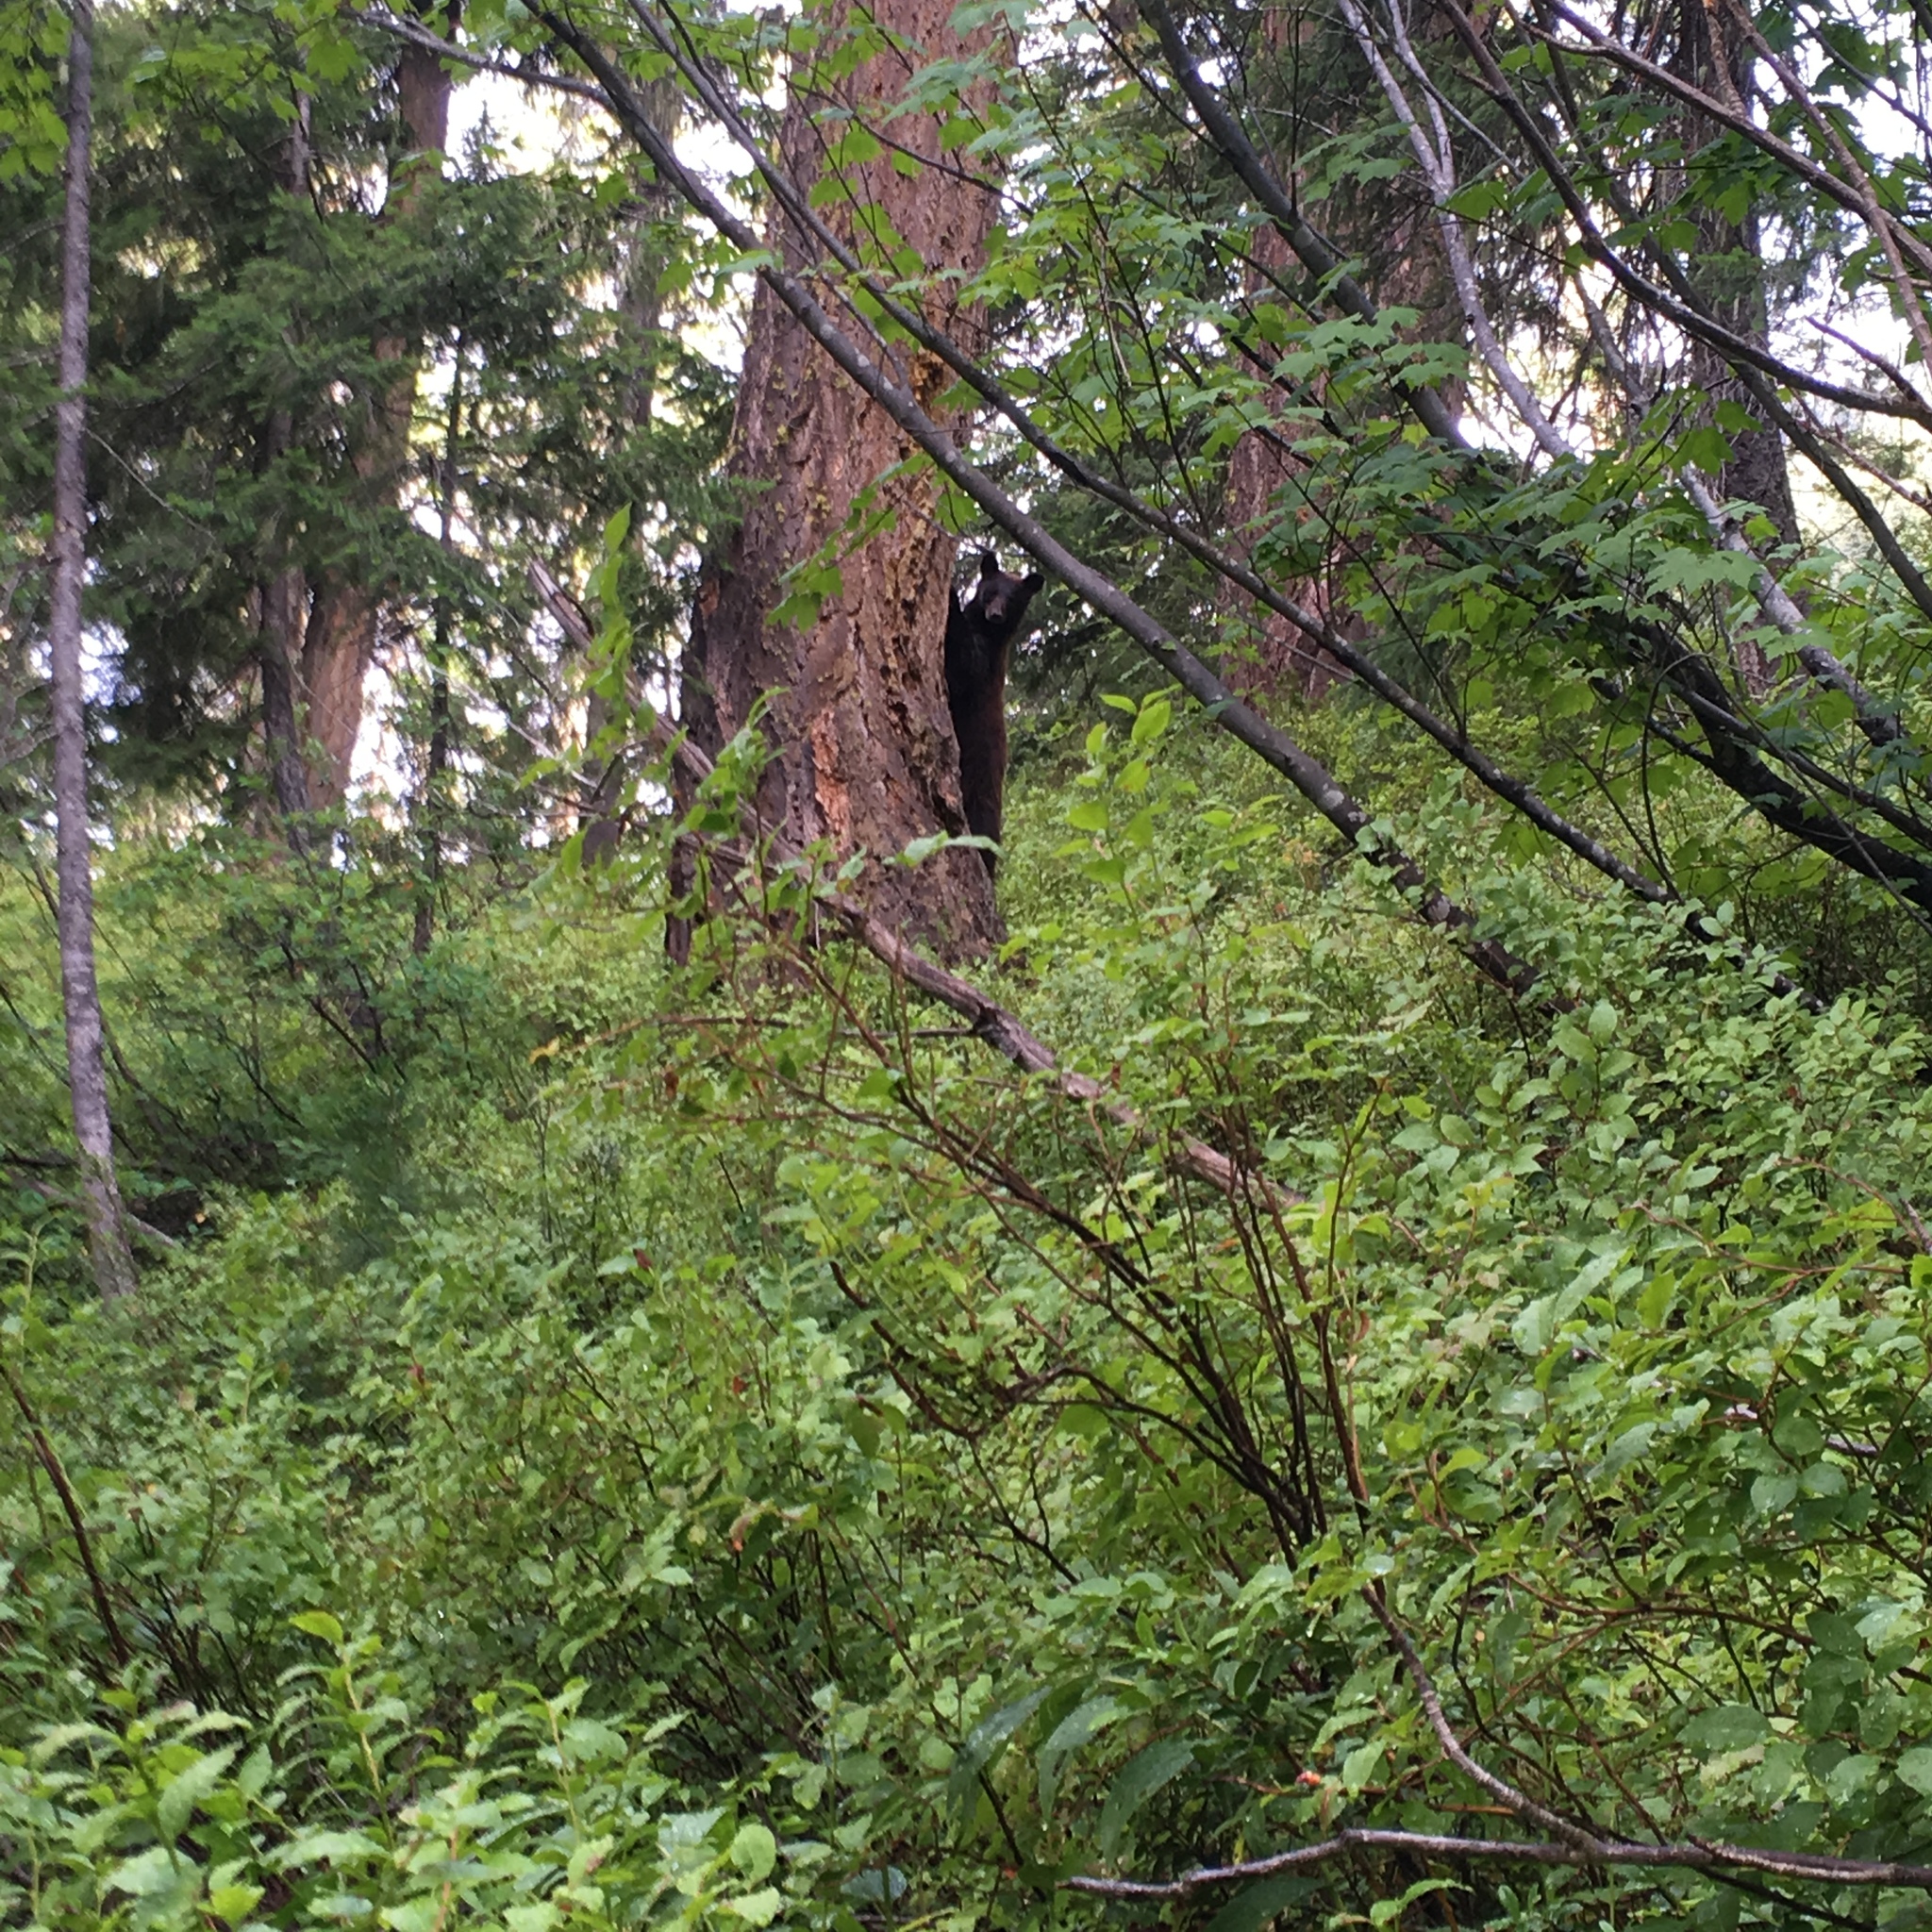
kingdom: Animalia
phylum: Chordata
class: Mammalia
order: Carnivora
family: Ursidae
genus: Ursus
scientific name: Ursus americanus
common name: American black bear
